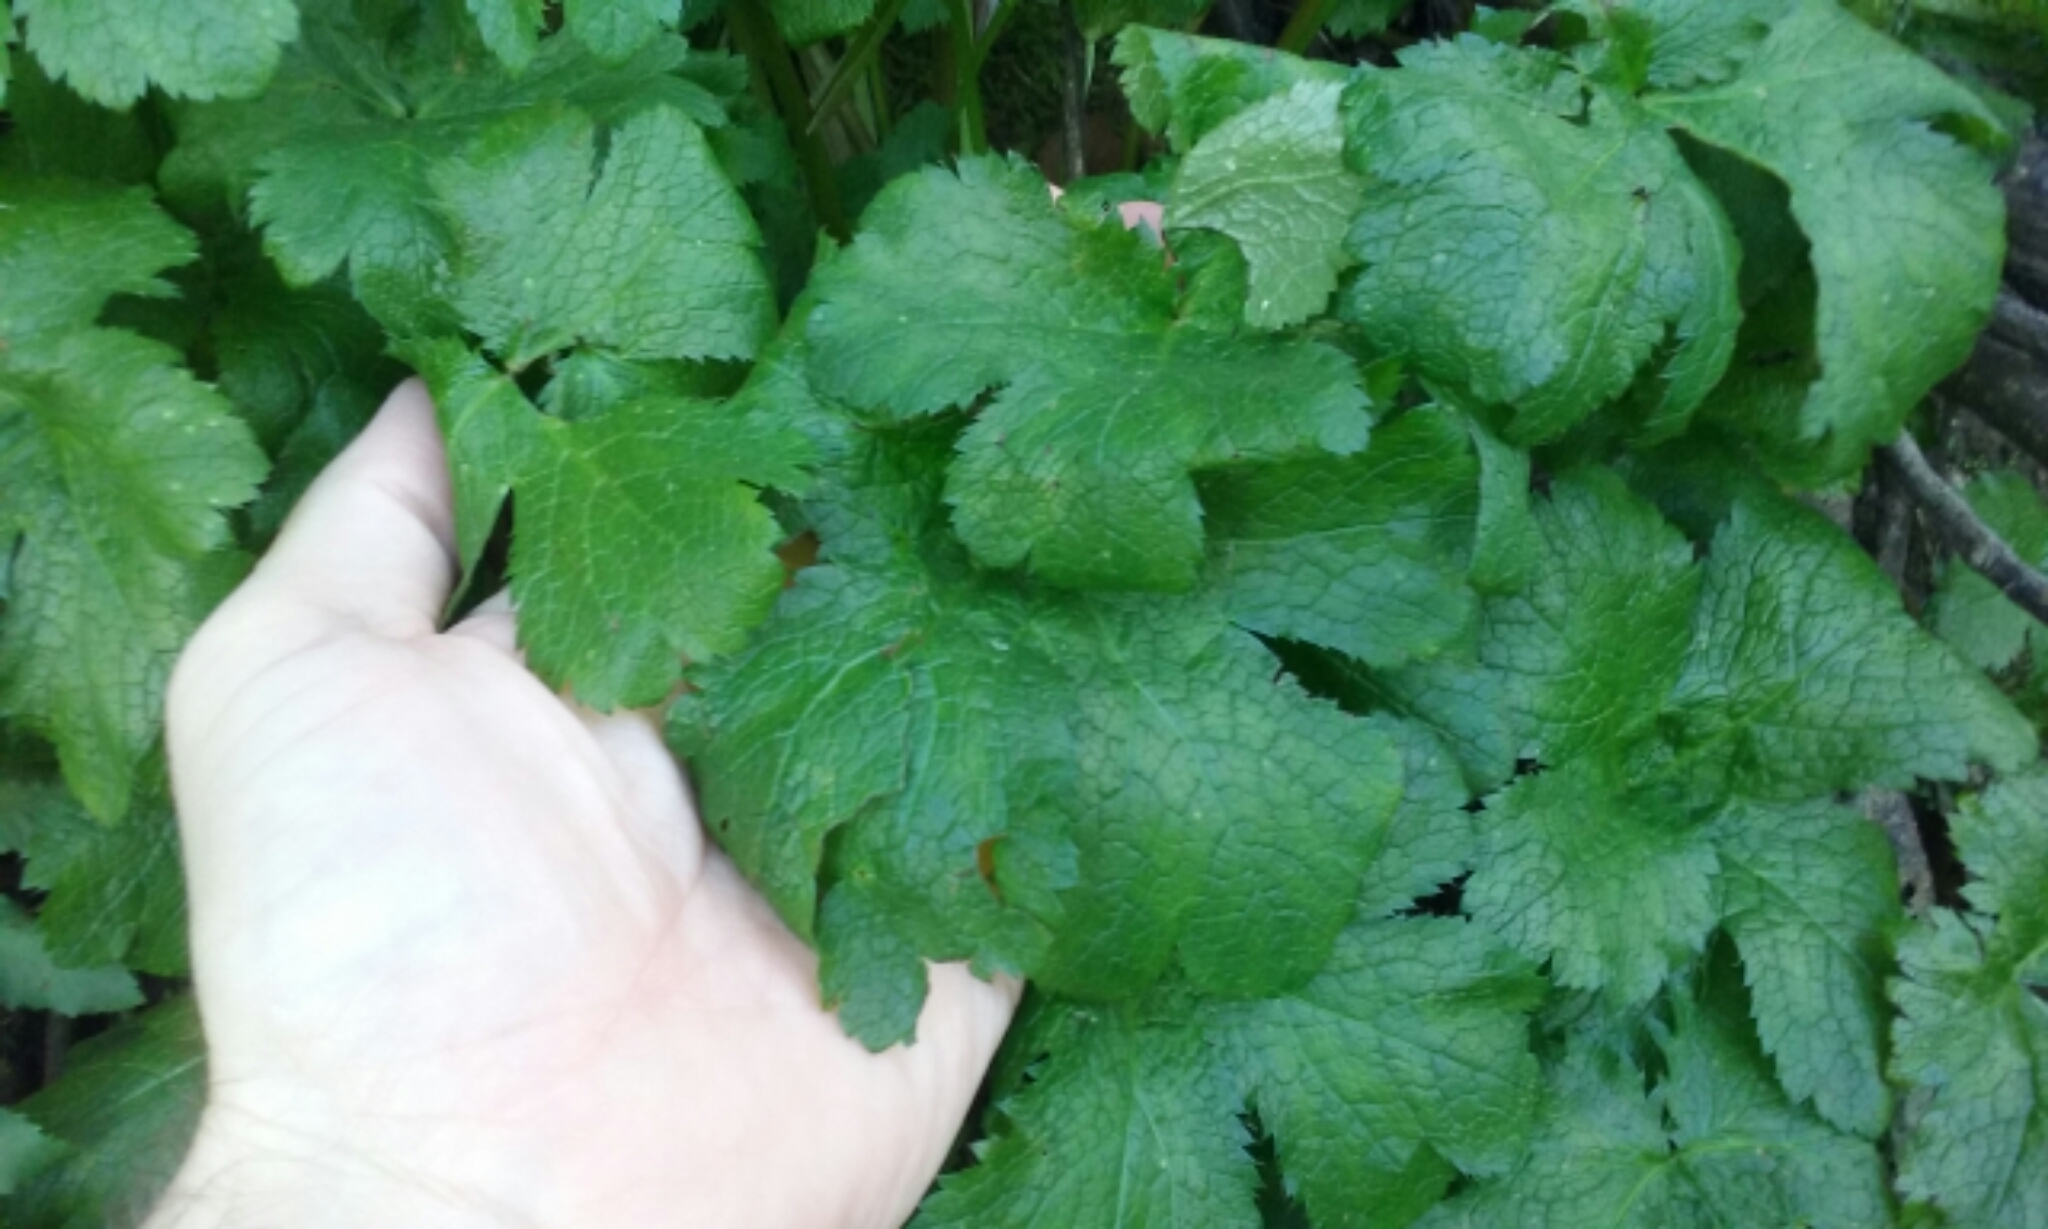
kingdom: Plantae
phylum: Tracheophyta
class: Magnoliopsida
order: Apiales
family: Apiaceae
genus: Sanicula
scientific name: Sanicula crassicaulis
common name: Western snakeroot
